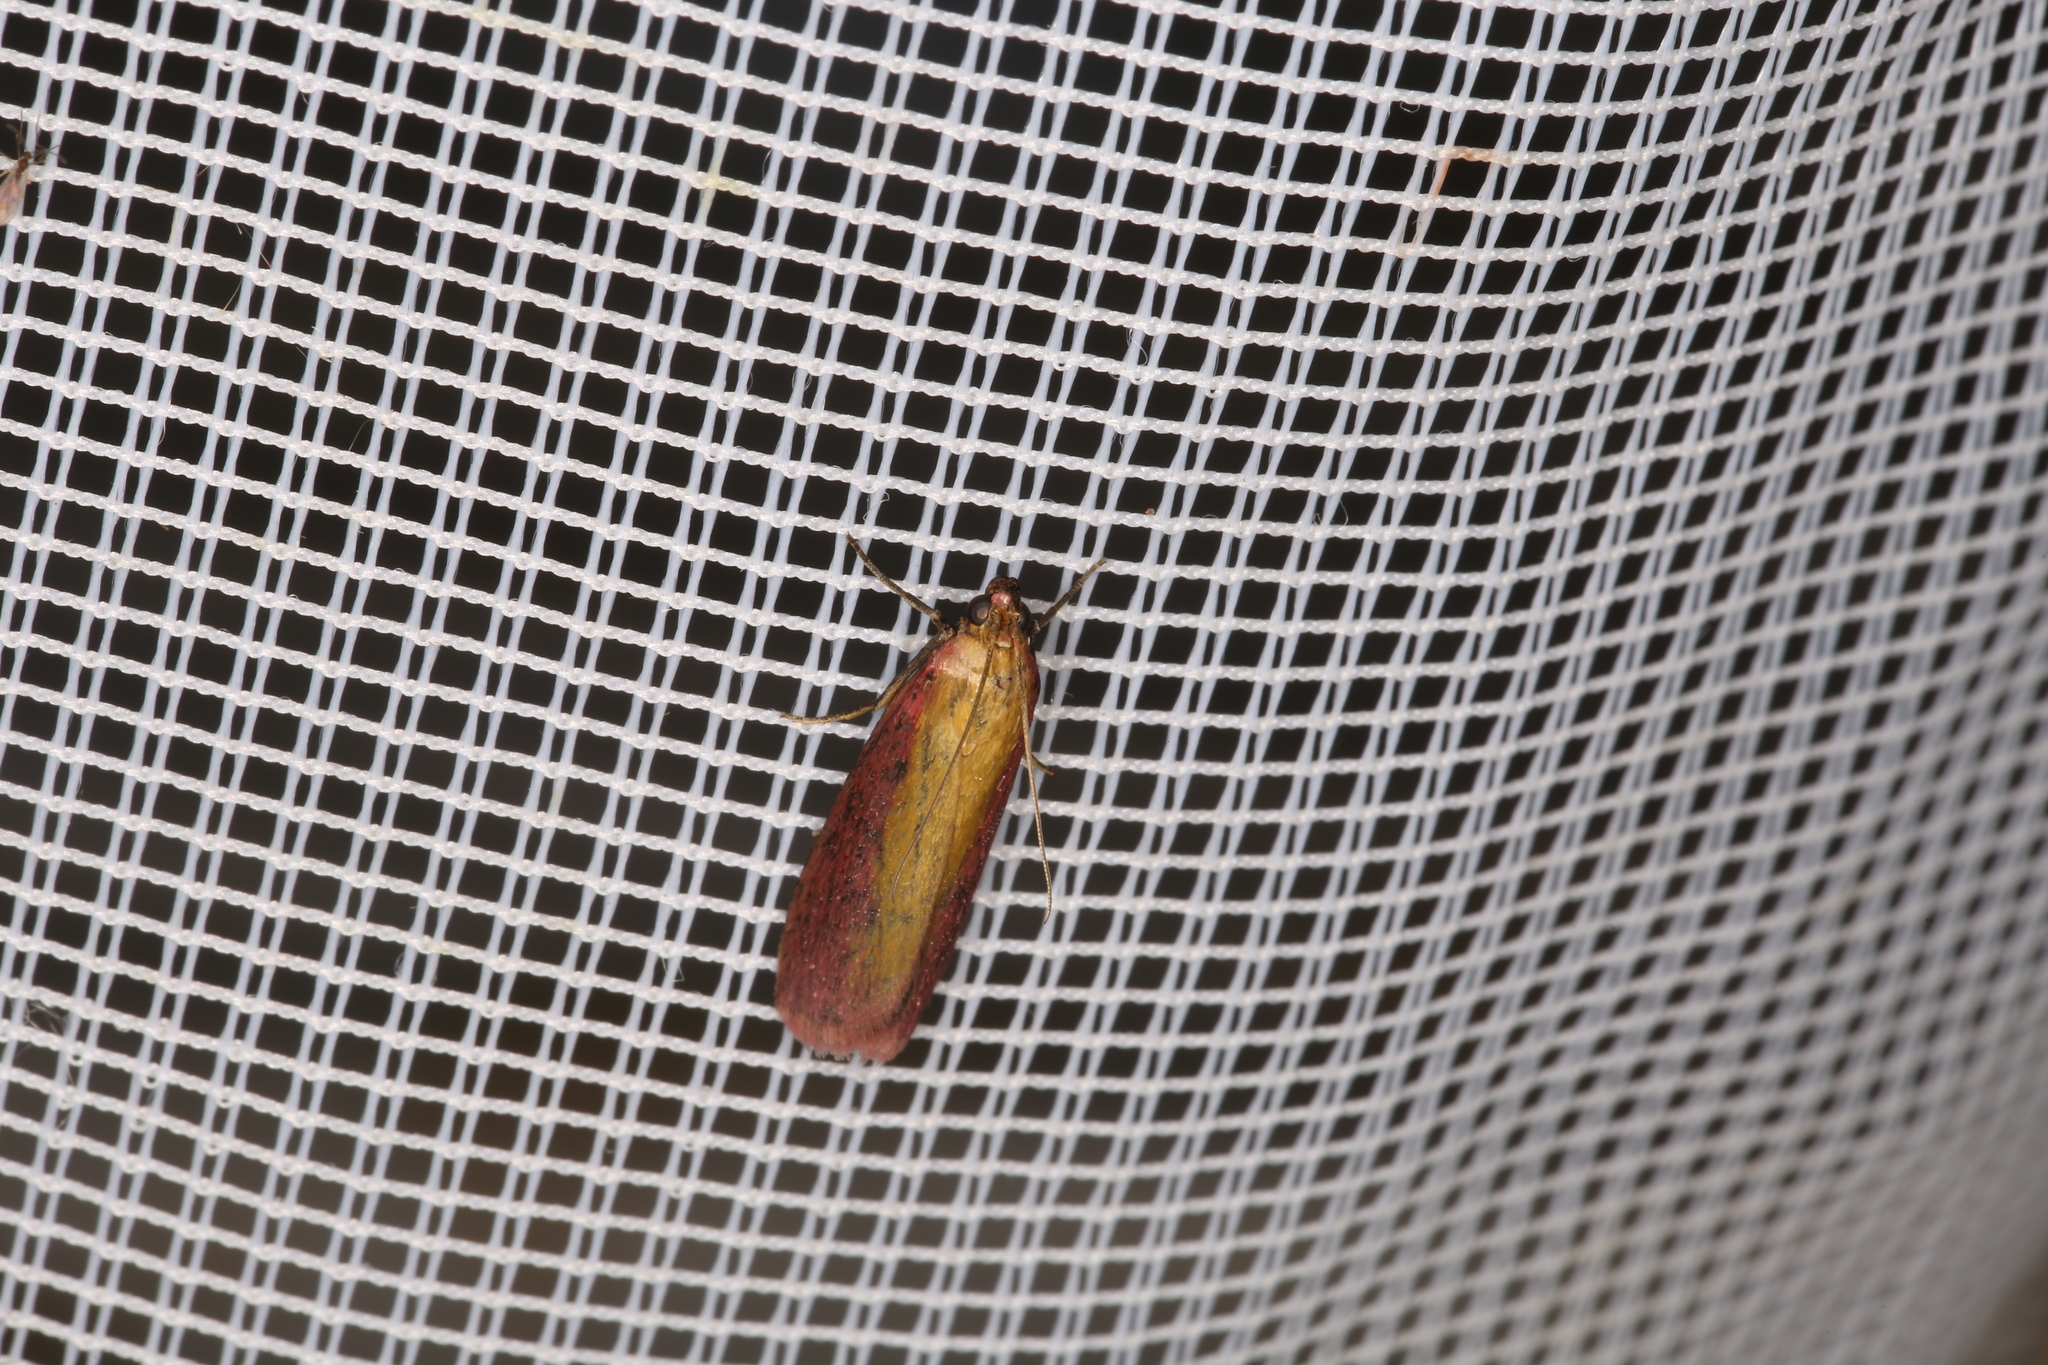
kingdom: Animalia
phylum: Arthropoda
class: Insecta
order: Lepidoptera
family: Pyralidae
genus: Oncocera
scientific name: Oncocera semirubella
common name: Rosy-striped knot-horn
